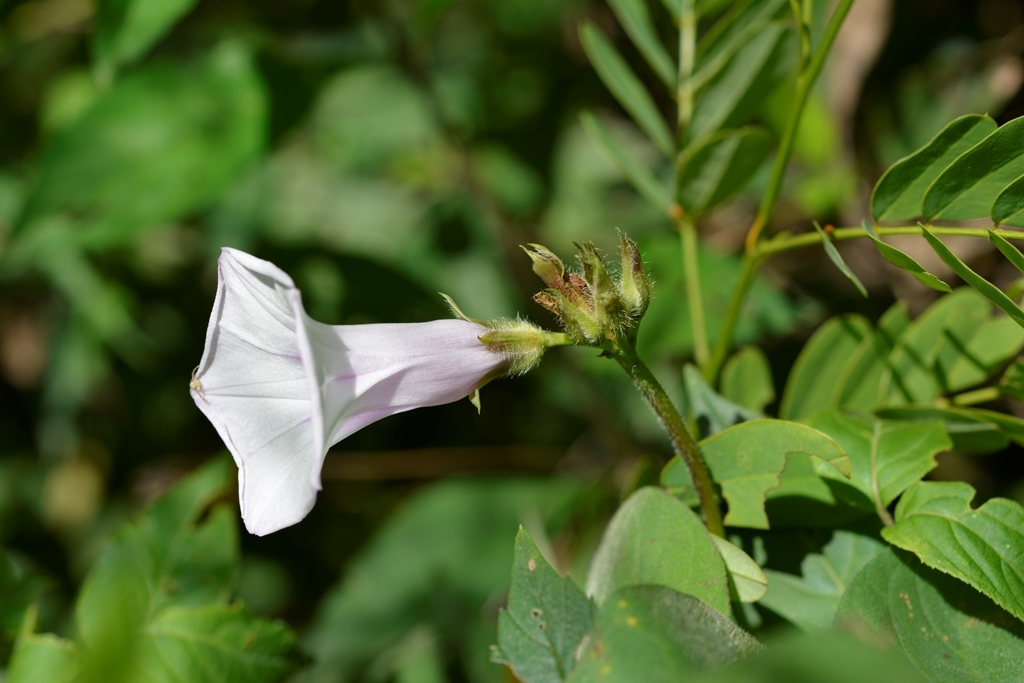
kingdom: Plantae
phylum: Tracheophyta
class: Magnoliopsida
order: Solanales
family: Convolvulaceae
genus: Ipomoea
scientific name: Ipomoea batatas
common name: Sweet-potato
